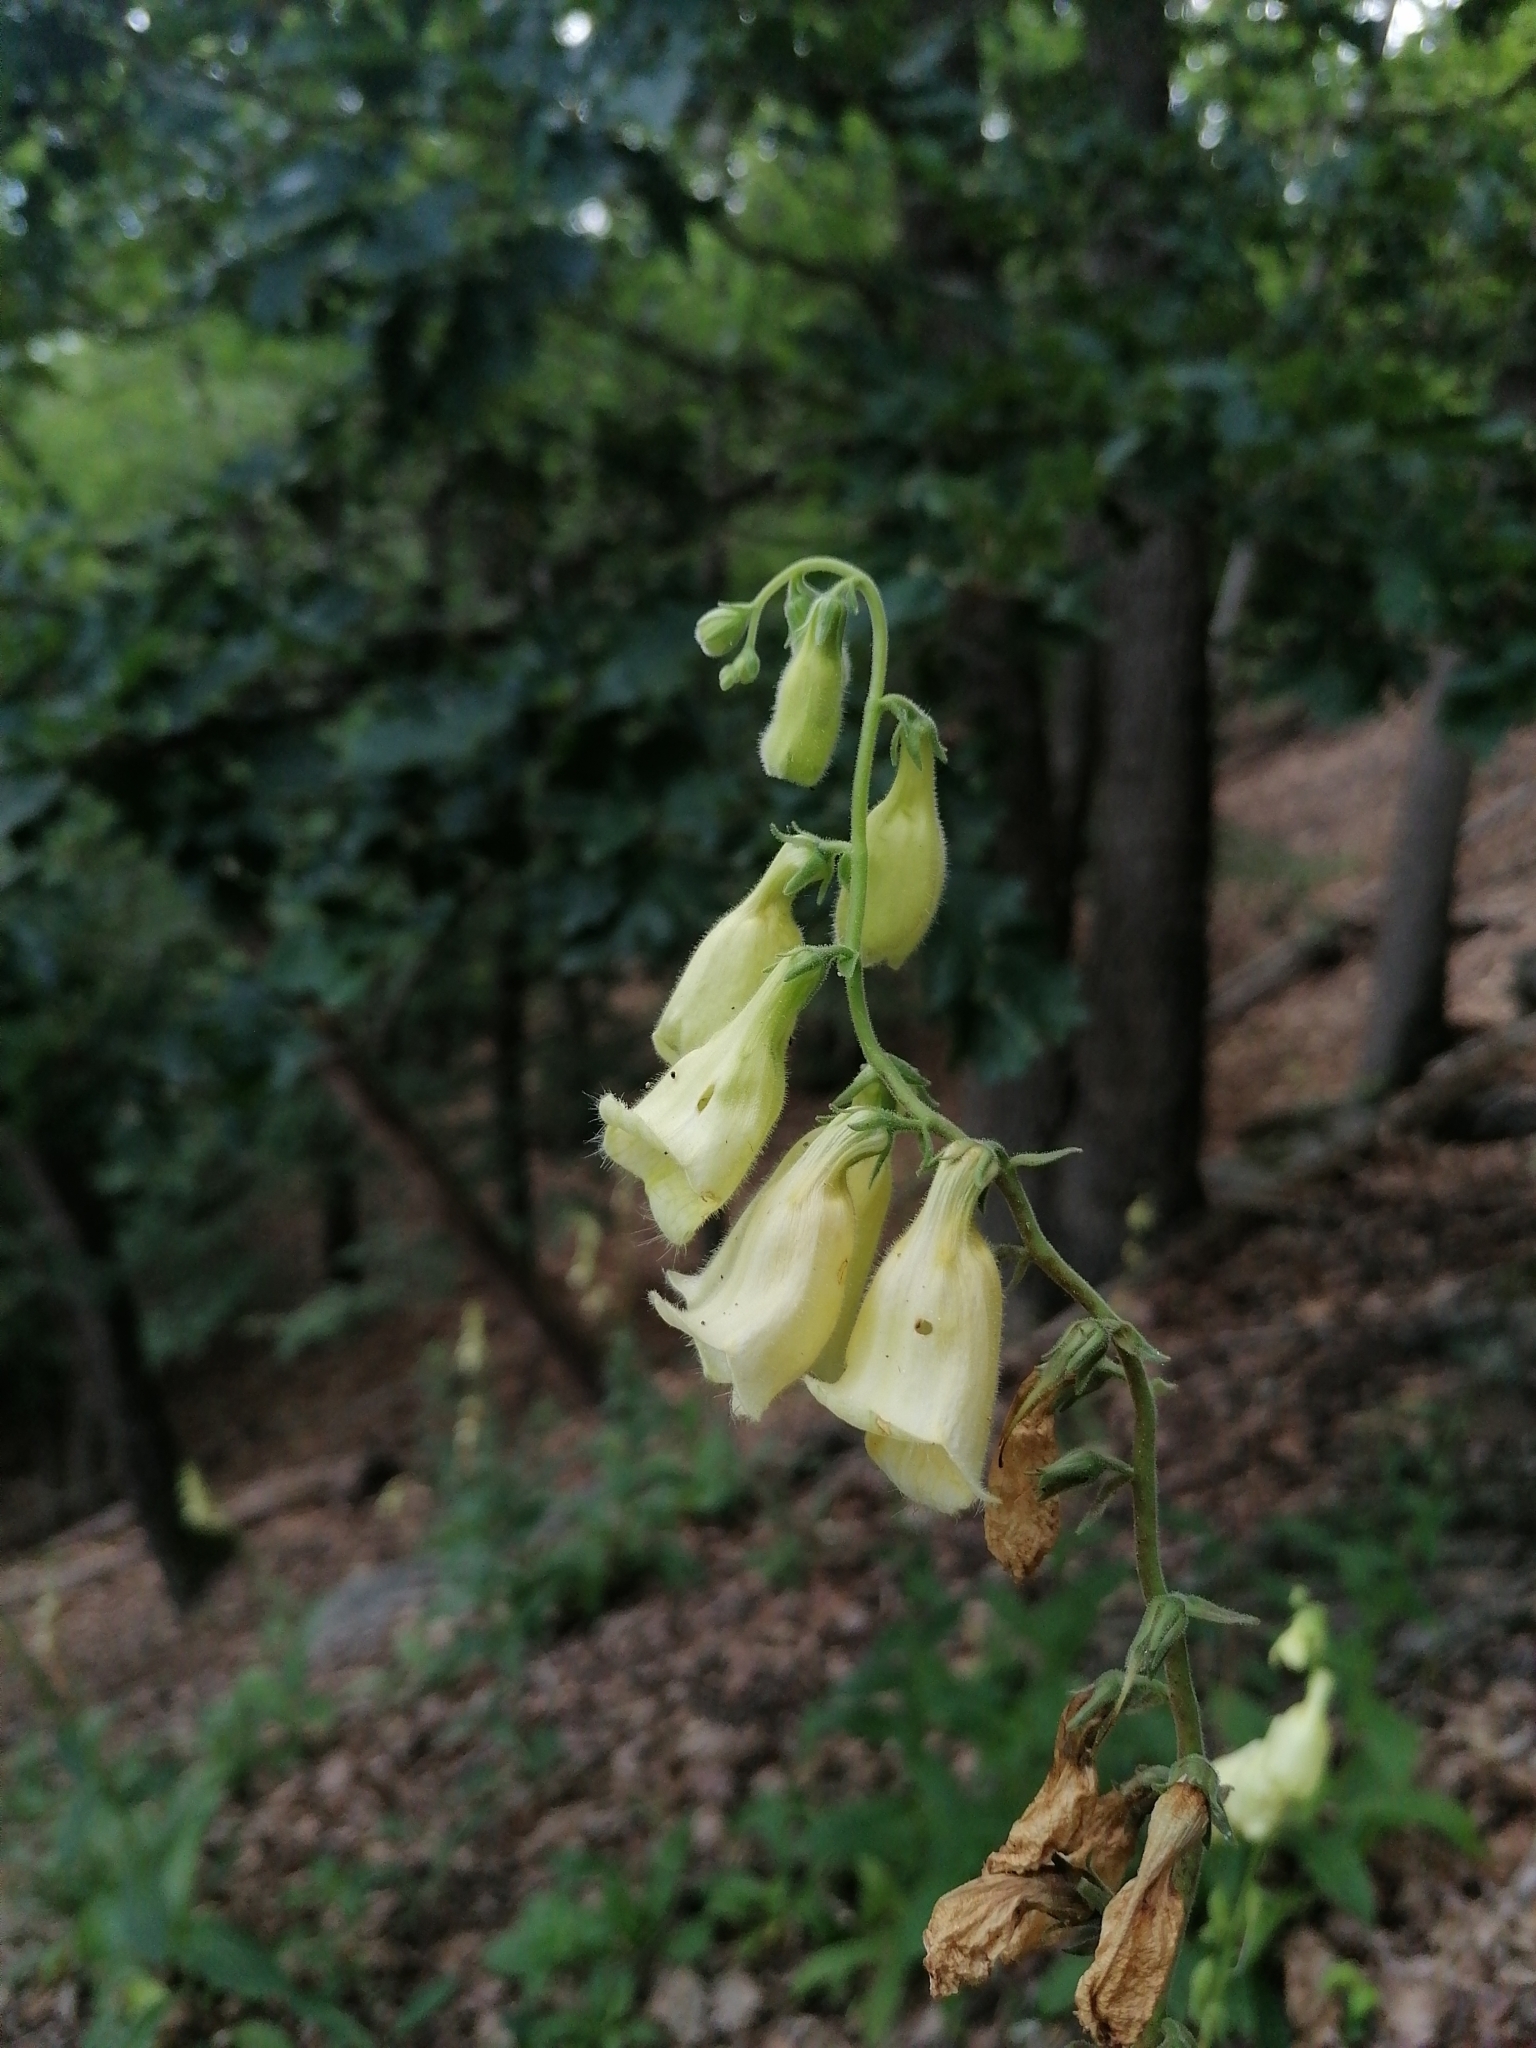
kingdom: Plantae
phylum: Tracheophyta
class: Magnoliopsida
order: Lamiales
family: Plantaginaceae
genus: Digitalis
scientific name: Digitalis grandiflora
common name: Yellow foxglove
